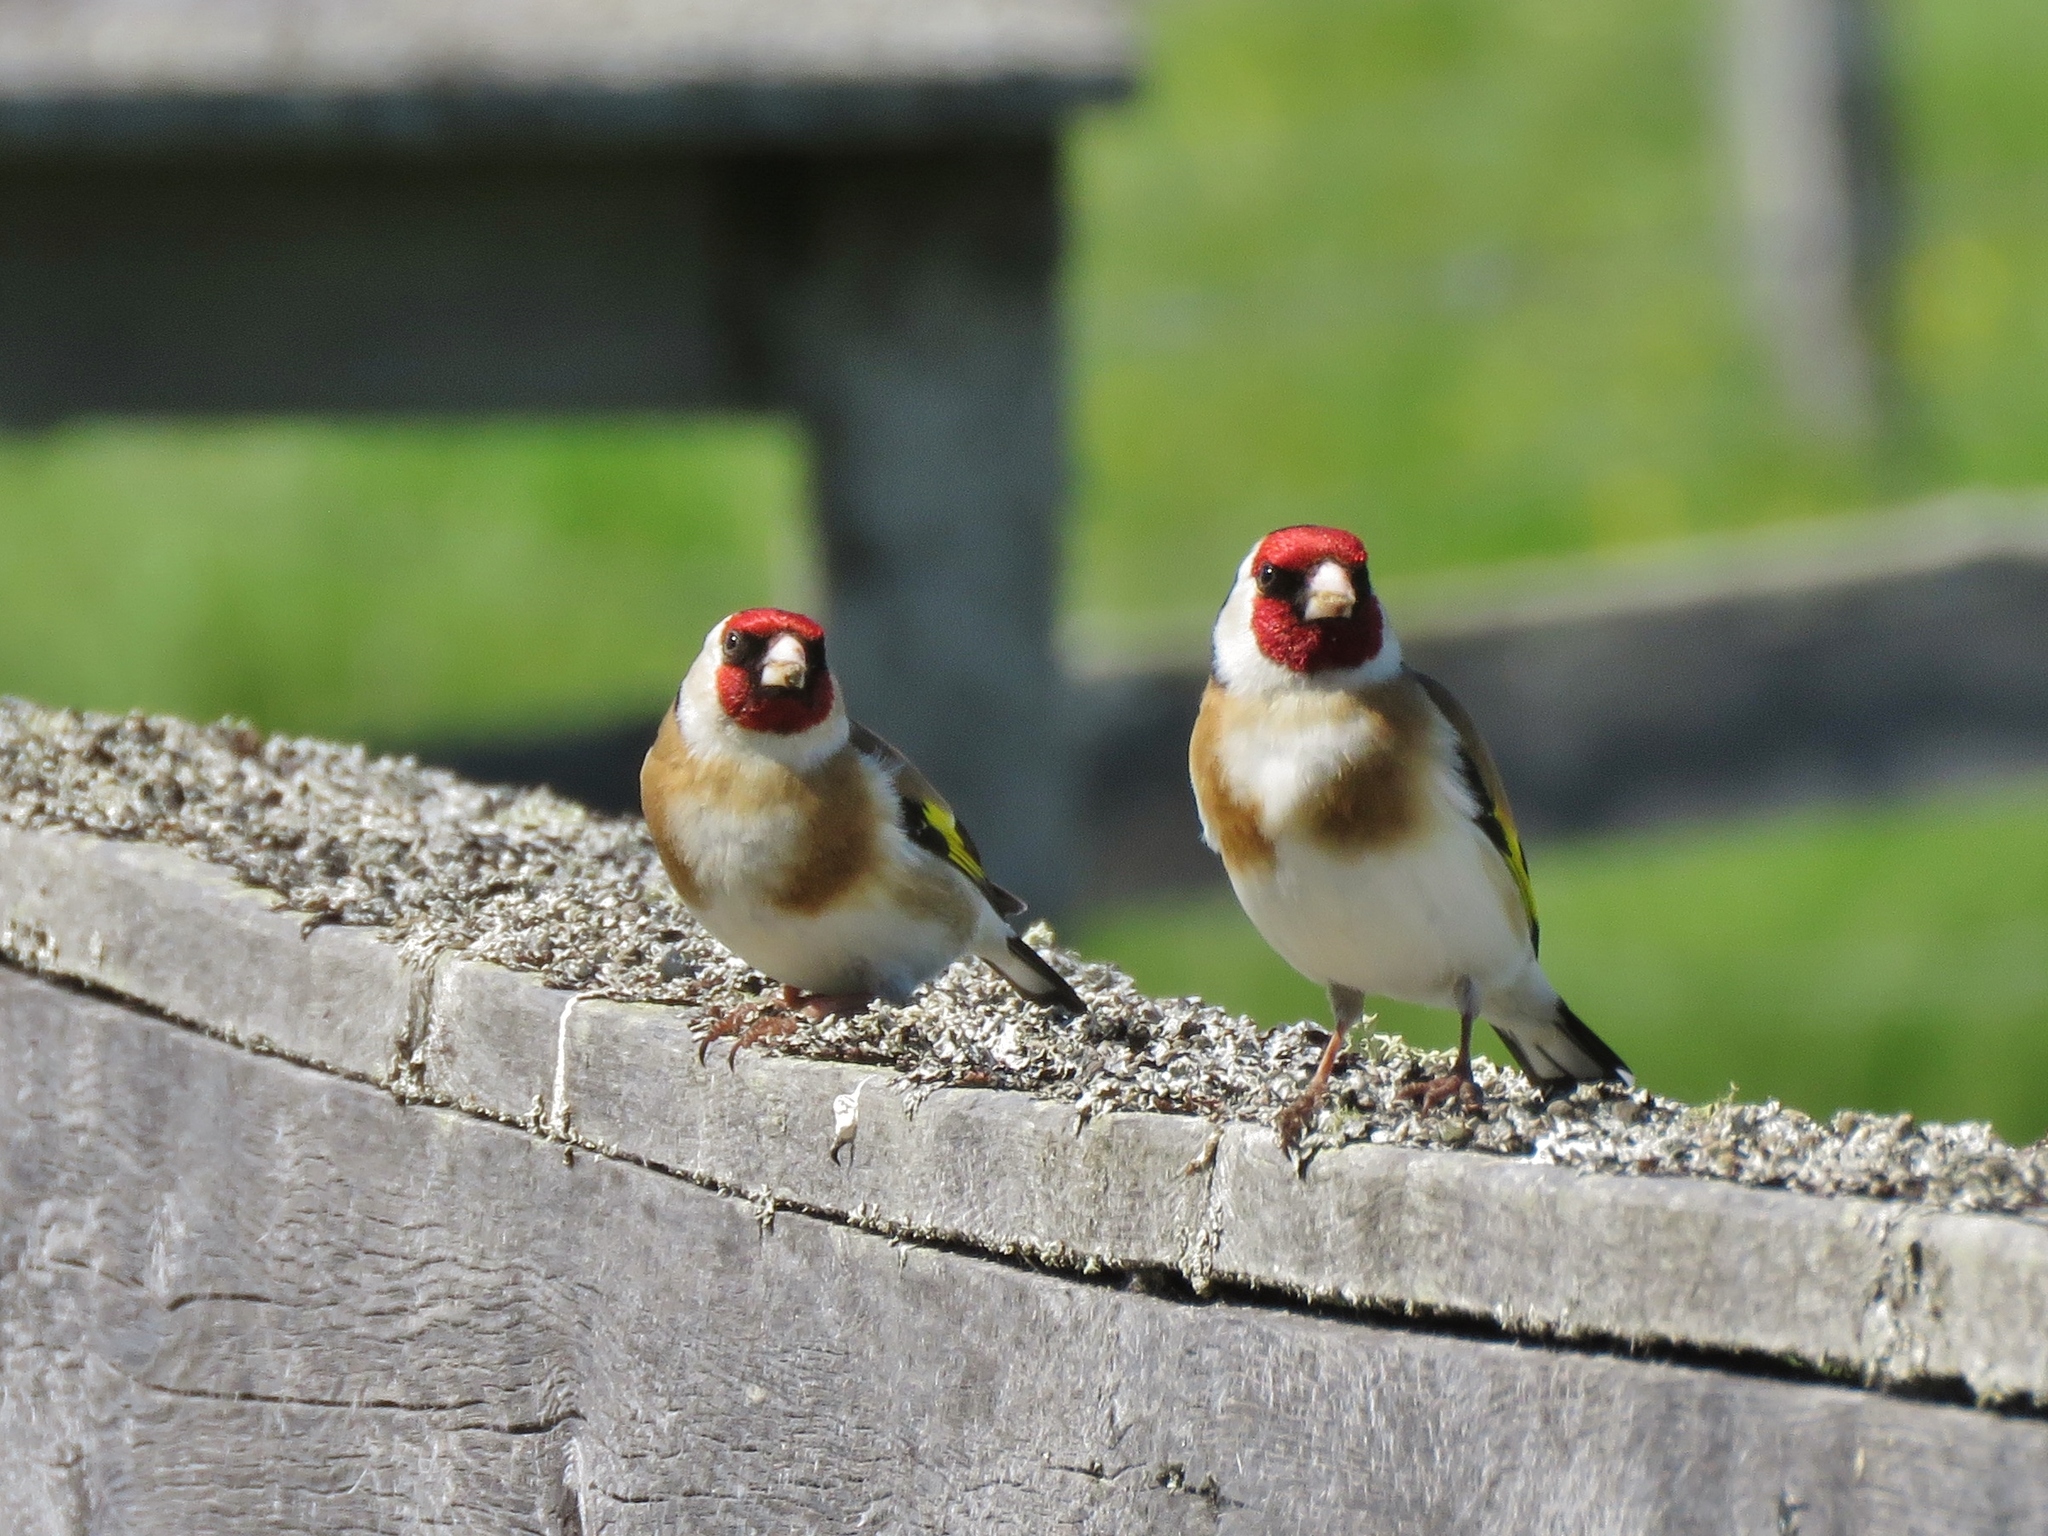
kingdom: Animalia
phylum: Chordata
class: Aves
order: Passeriformes
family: Fringillidae
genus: Carduelis
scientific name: Carduelis carduelis
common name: European goldfinch
